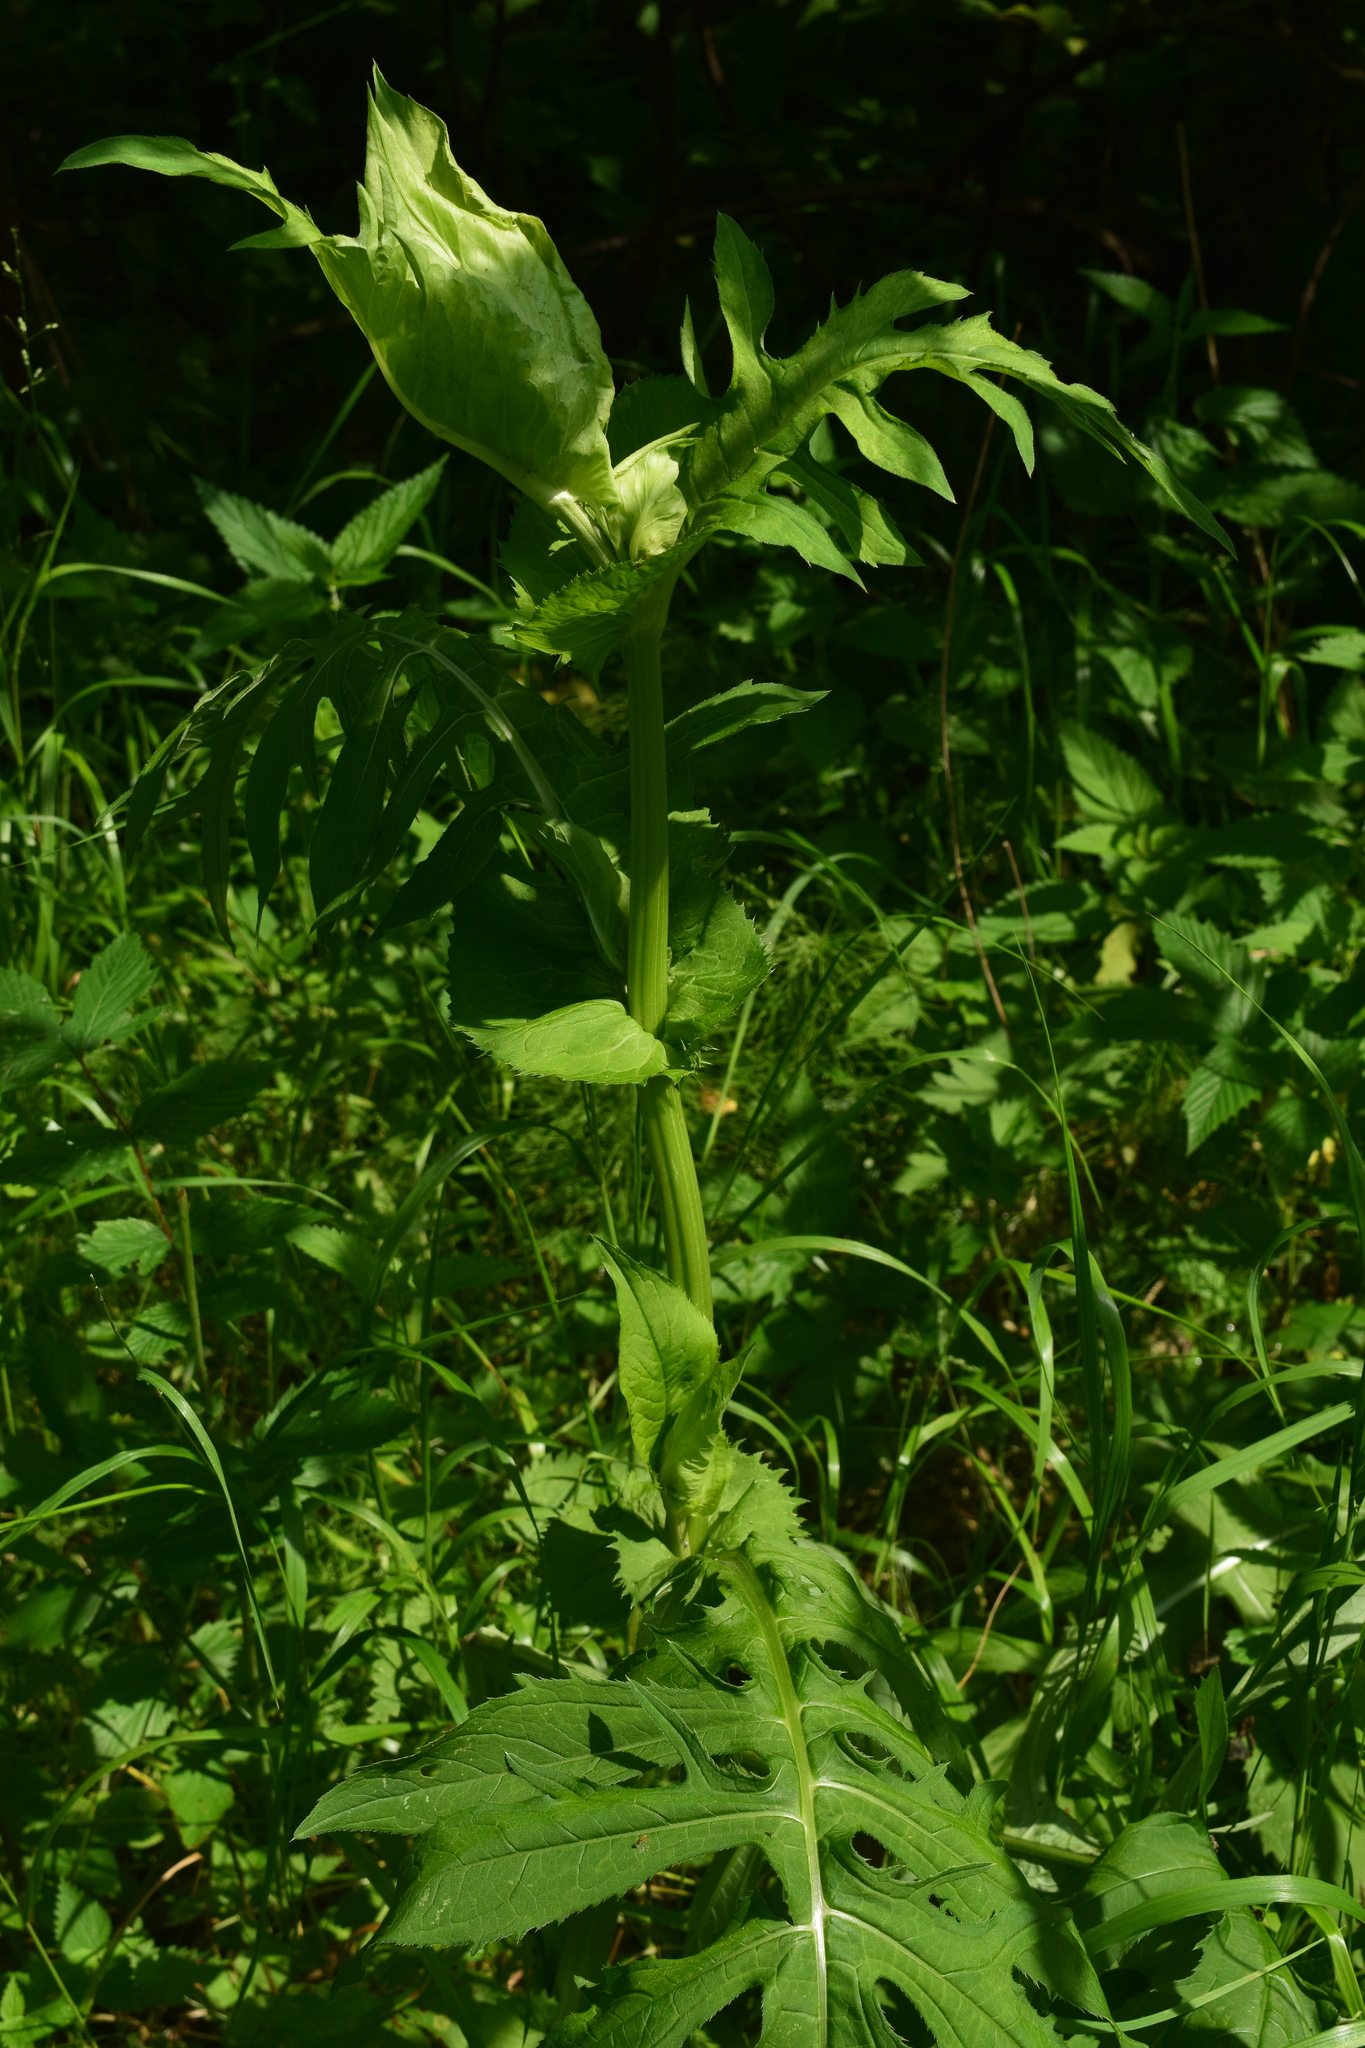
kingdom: Plantae
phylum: Tracheophyta
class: Magnoliopsida
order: Asterales
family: Asteraceae
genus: Cirsium
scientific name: Cirsium oleraceum
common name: Cabbage thistle
